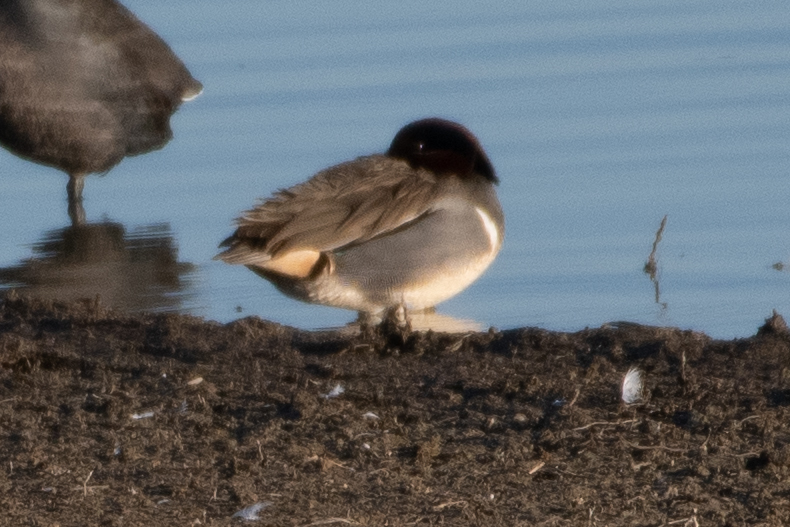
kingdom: Animalia
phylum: Chordata
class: Aves
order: Anseriformes
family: Anatidae
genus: Anas
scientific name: Anas crecca
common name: Eurasian teal
